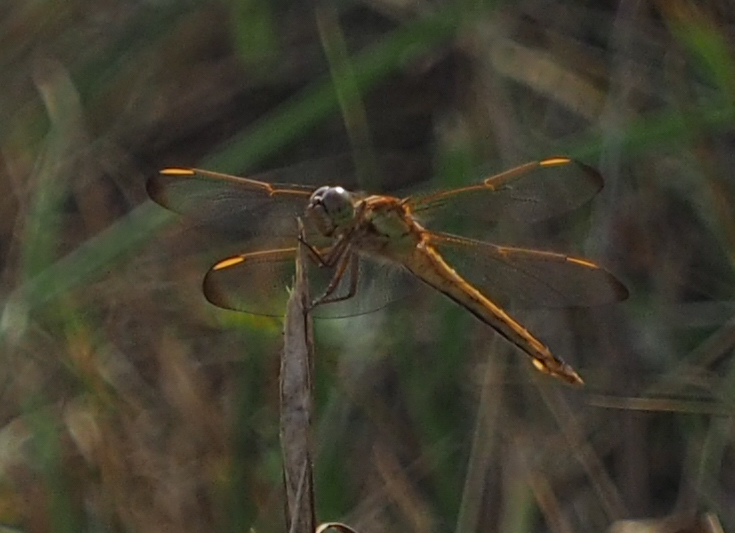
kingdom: Animalia
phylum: Arthropoda
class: Insecta
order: Odonata
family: Libellulidae
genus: Libellula
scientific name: Libellula needhami
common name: Needham's skimmer
